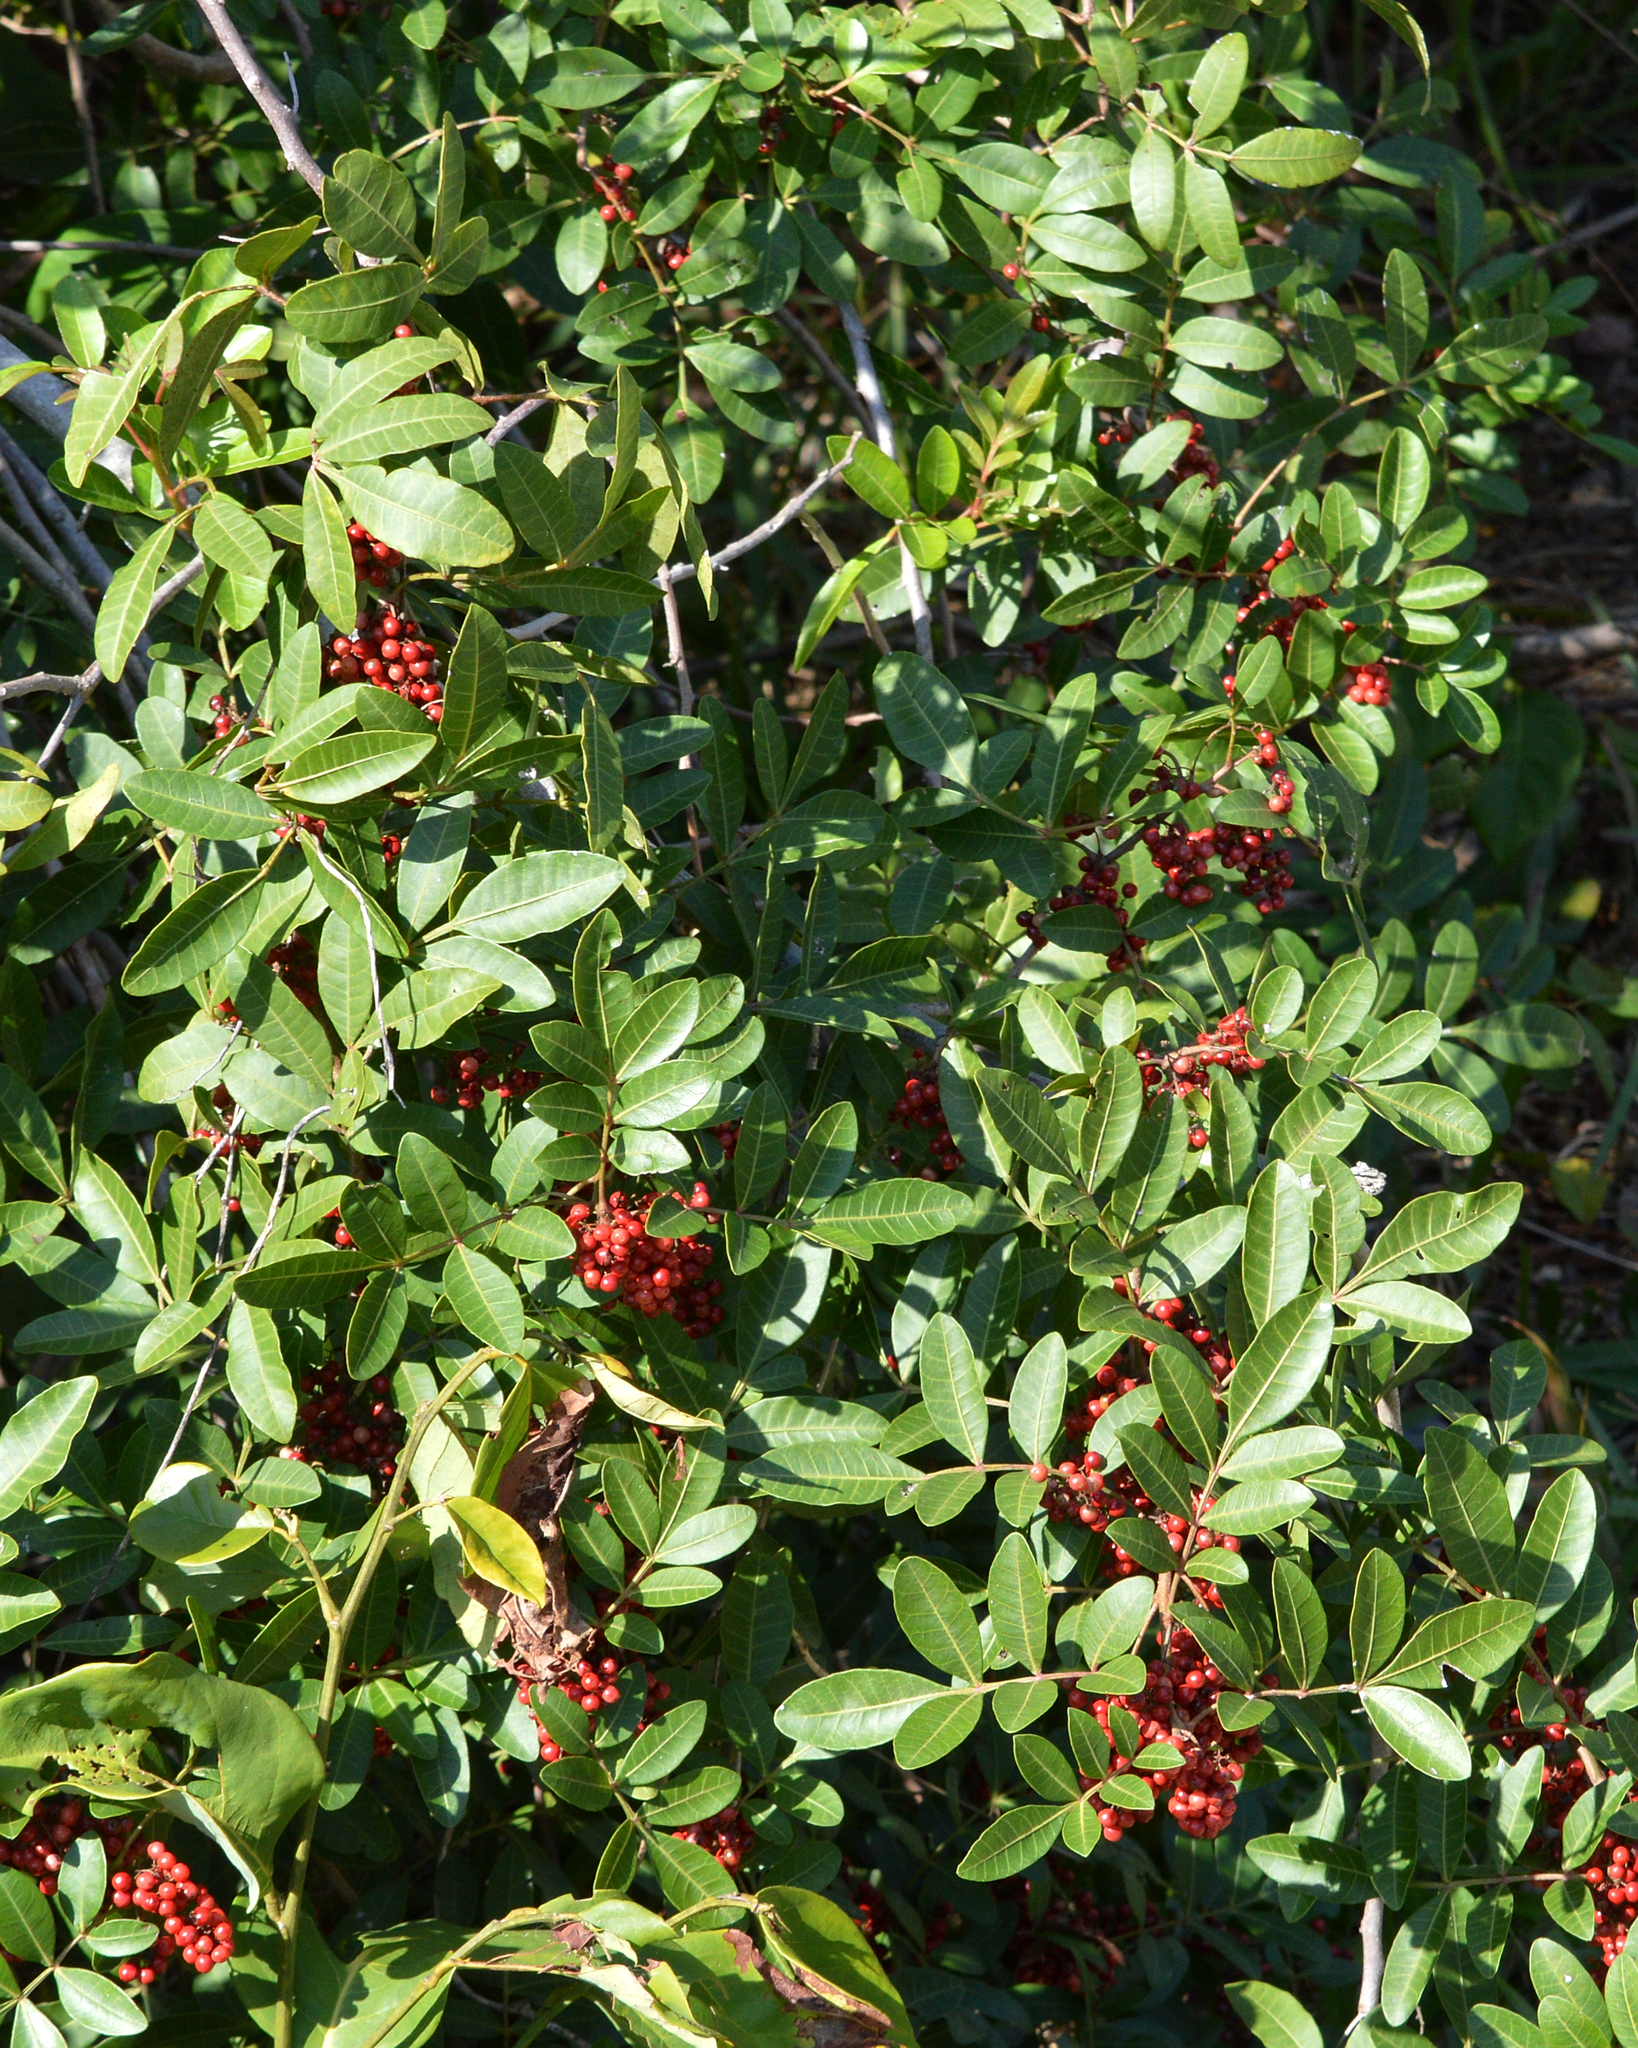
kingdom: Plantae
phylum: Tracheophyta
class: Magnoliopsida
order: Sapindales
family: Anacardiaceae
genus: Schinus
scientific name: Schinus terebinthifolia
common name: Brazilian peppertree
